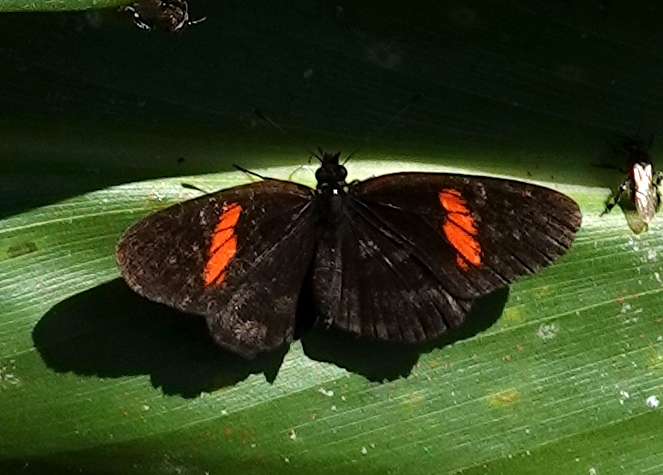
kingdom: Animalia
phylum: Arthropoda
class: Insecta
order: Lepidoptera
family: Nymphalidae
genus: Castilia
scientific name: Castilia castilla
